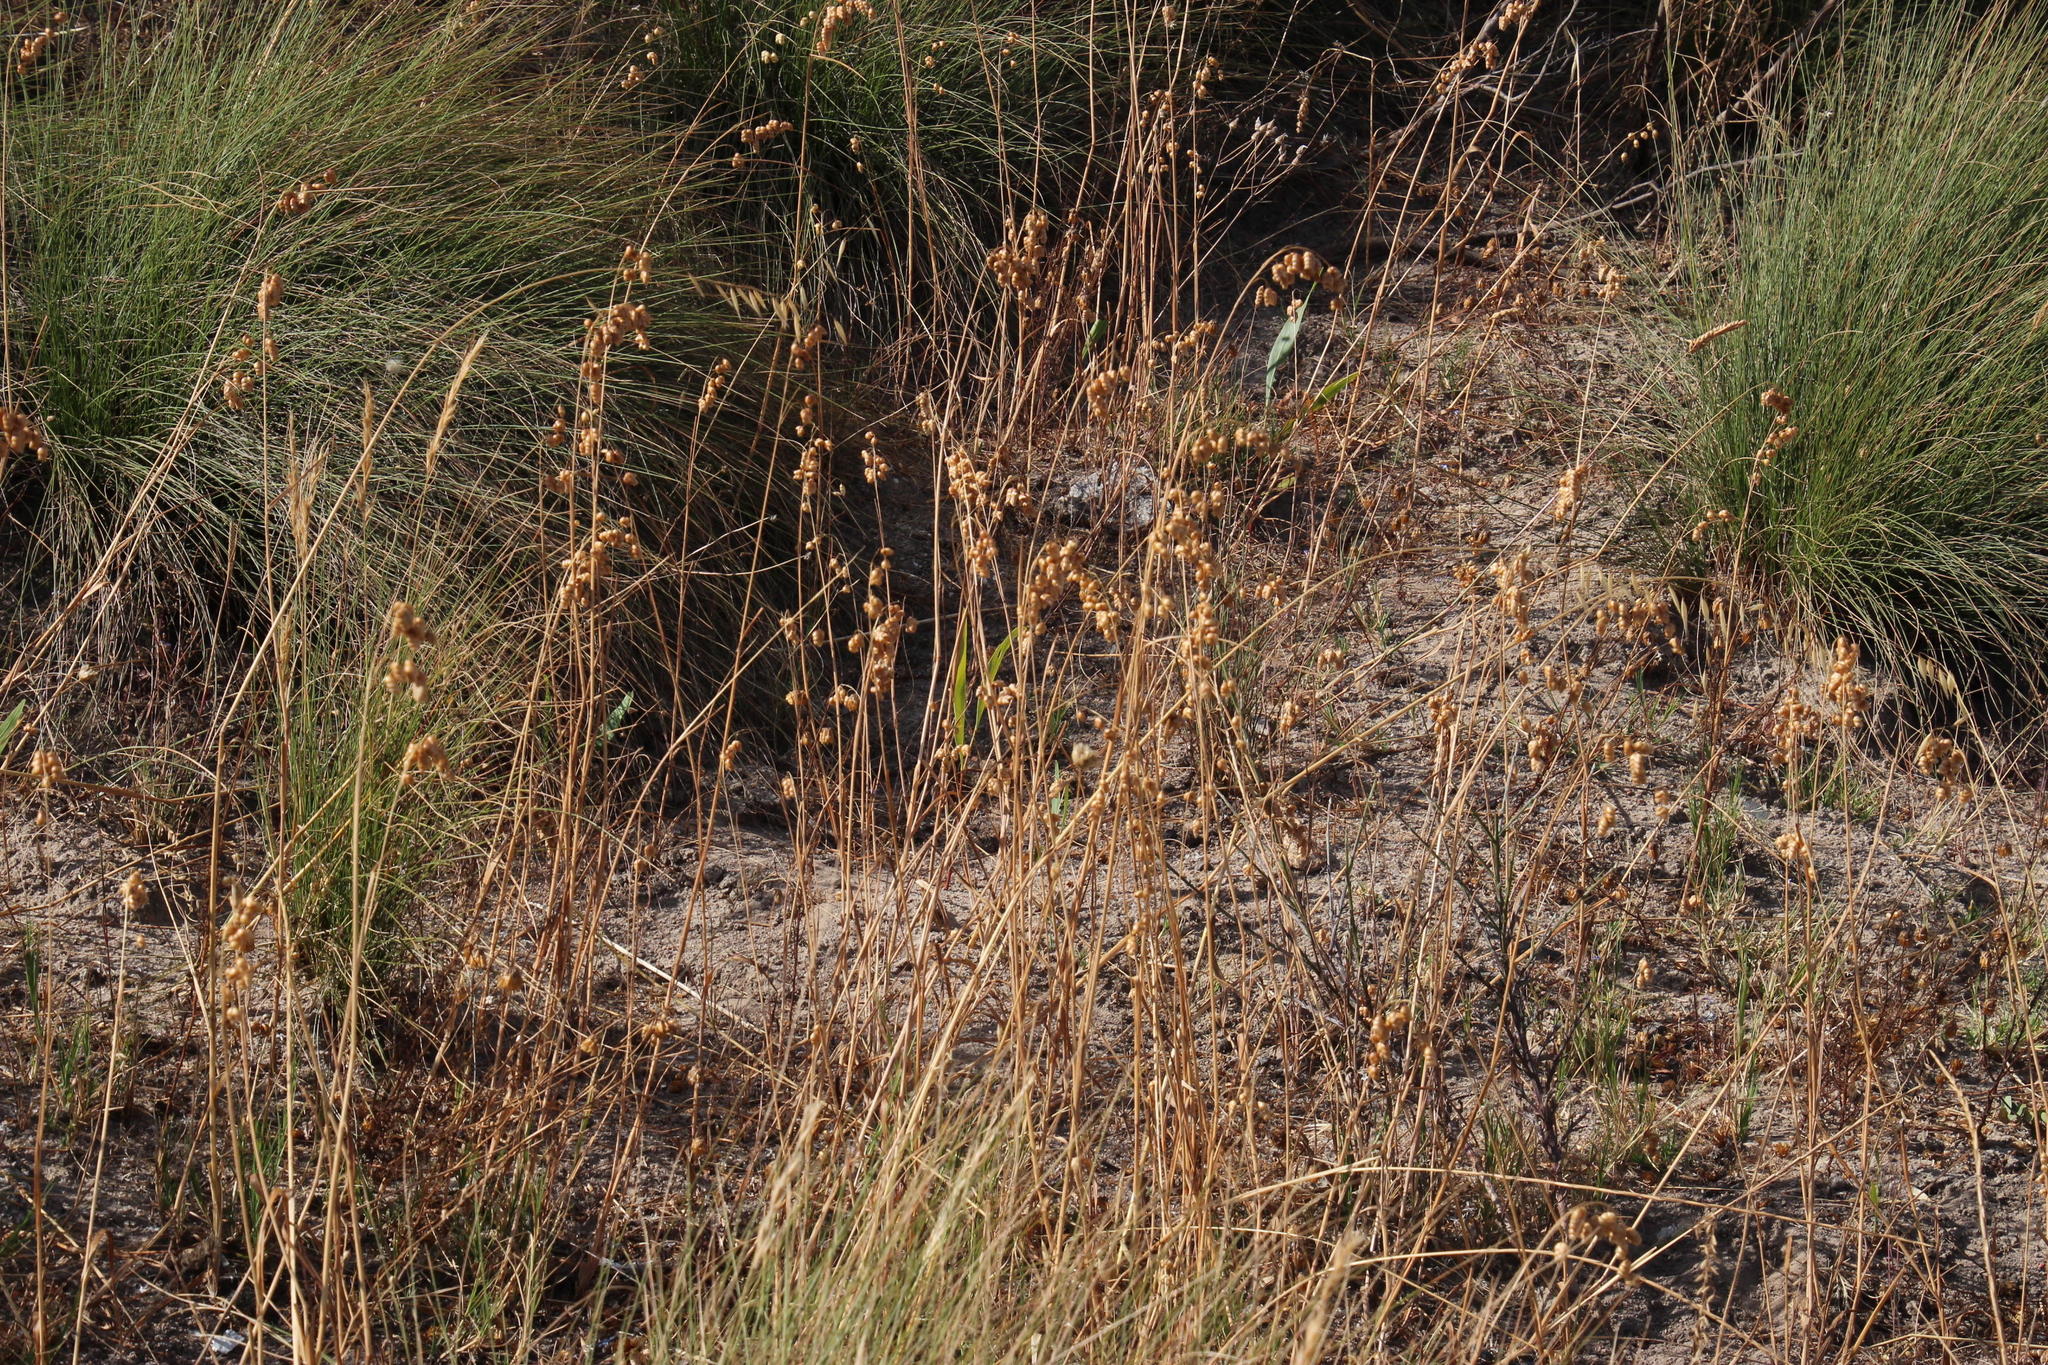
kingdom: Plantae
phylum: Tracheophyta
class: Liliopsida
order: Poales
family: Poaceae
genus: Briza
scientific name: Briza maxima
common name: Big quakinggrass
